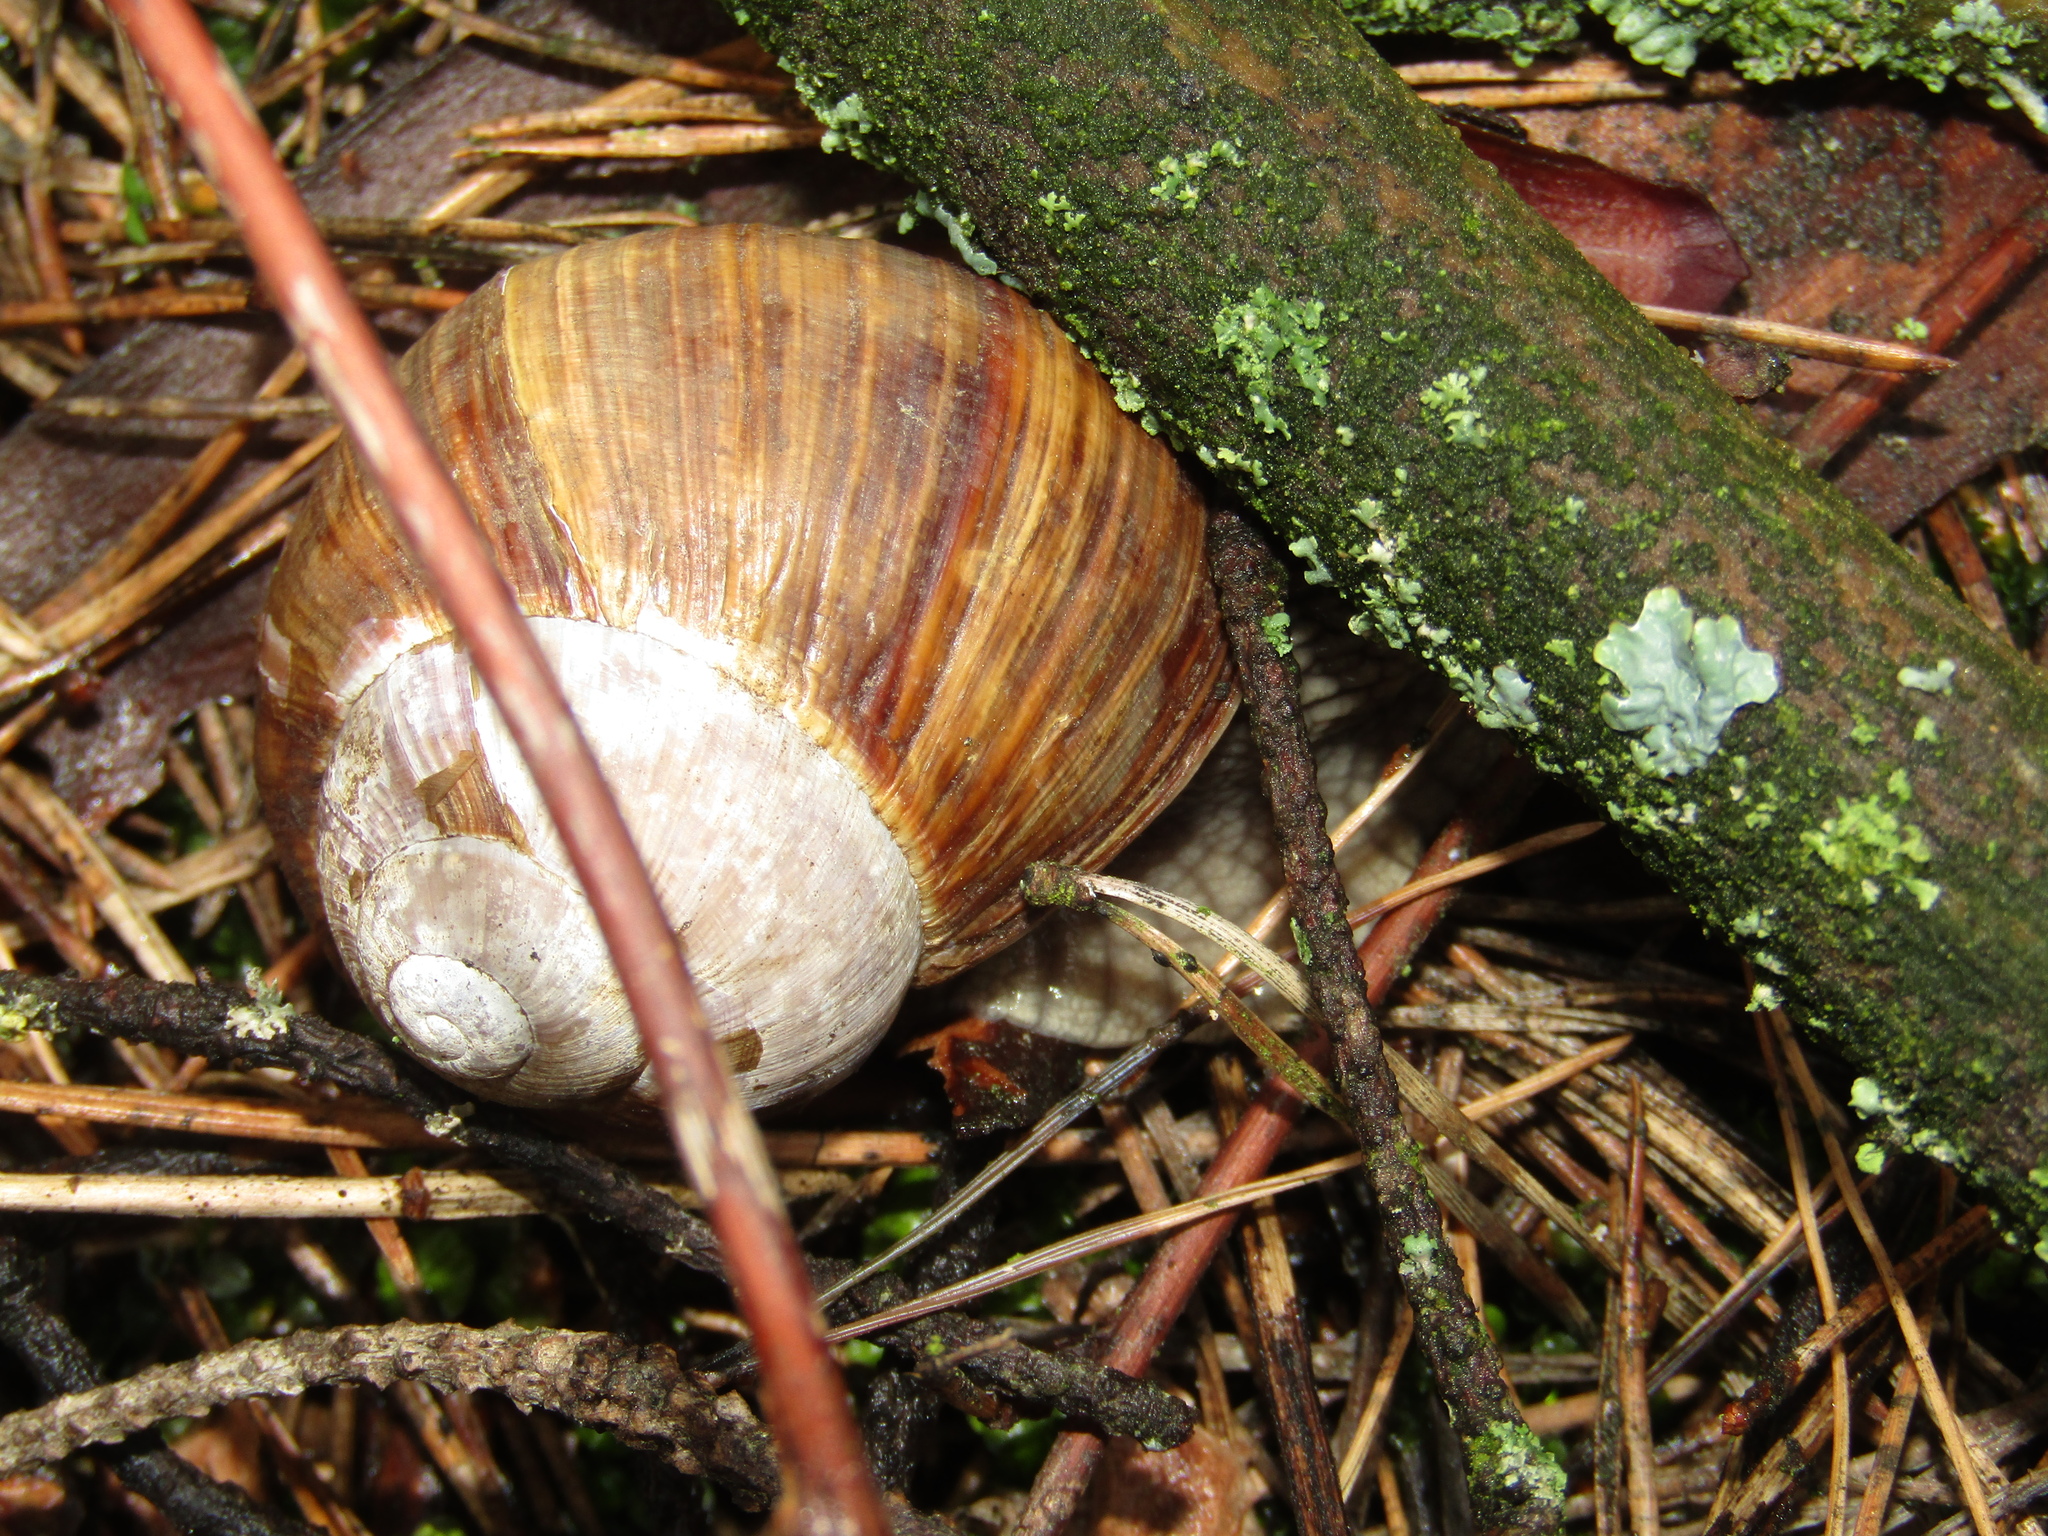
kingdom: Animalia
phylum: Mollusca
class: Gastropoda
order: Stylommatophora
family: Helicidae
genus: Helix
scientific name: Helix pomatia
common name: Roman snail
